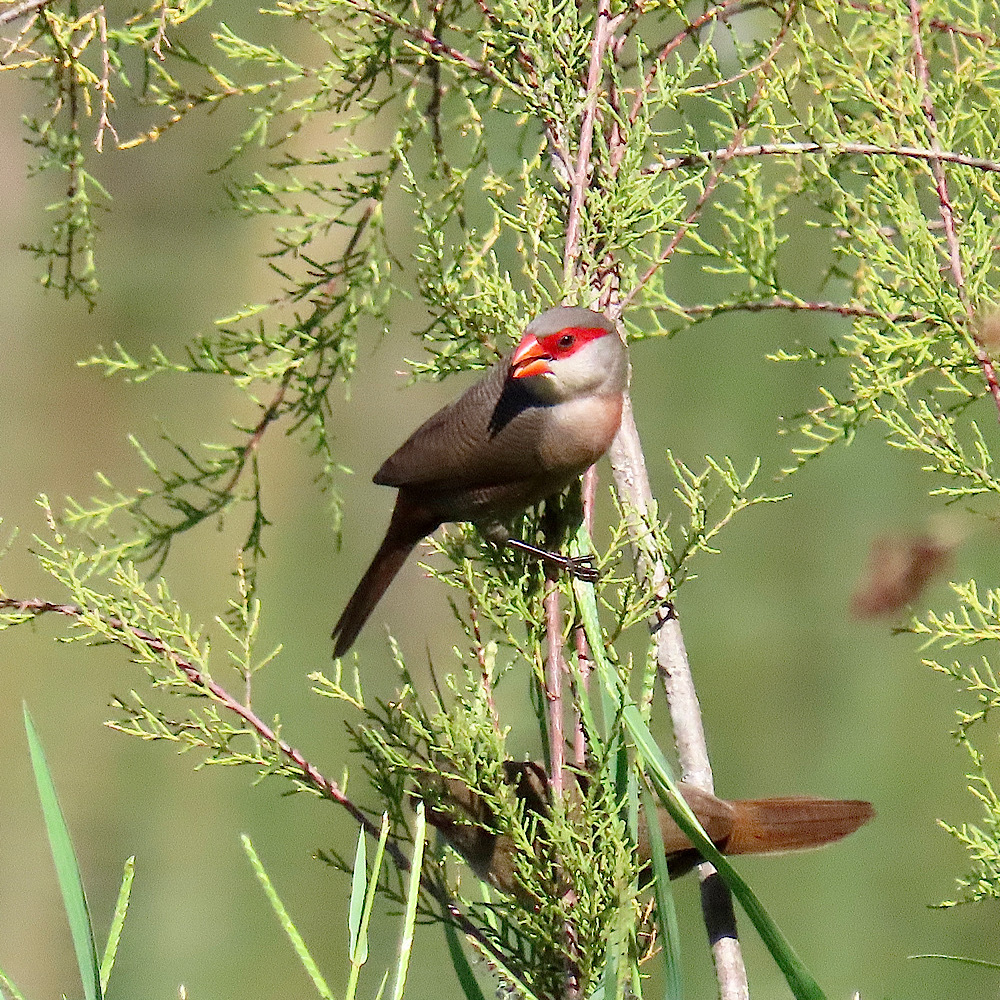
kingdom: Animalia
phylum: Chordata
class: Aves
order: Passeriformes
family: Estrildidae
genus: Estrilda
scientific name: Estrilda astrild
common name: Common waxbill
